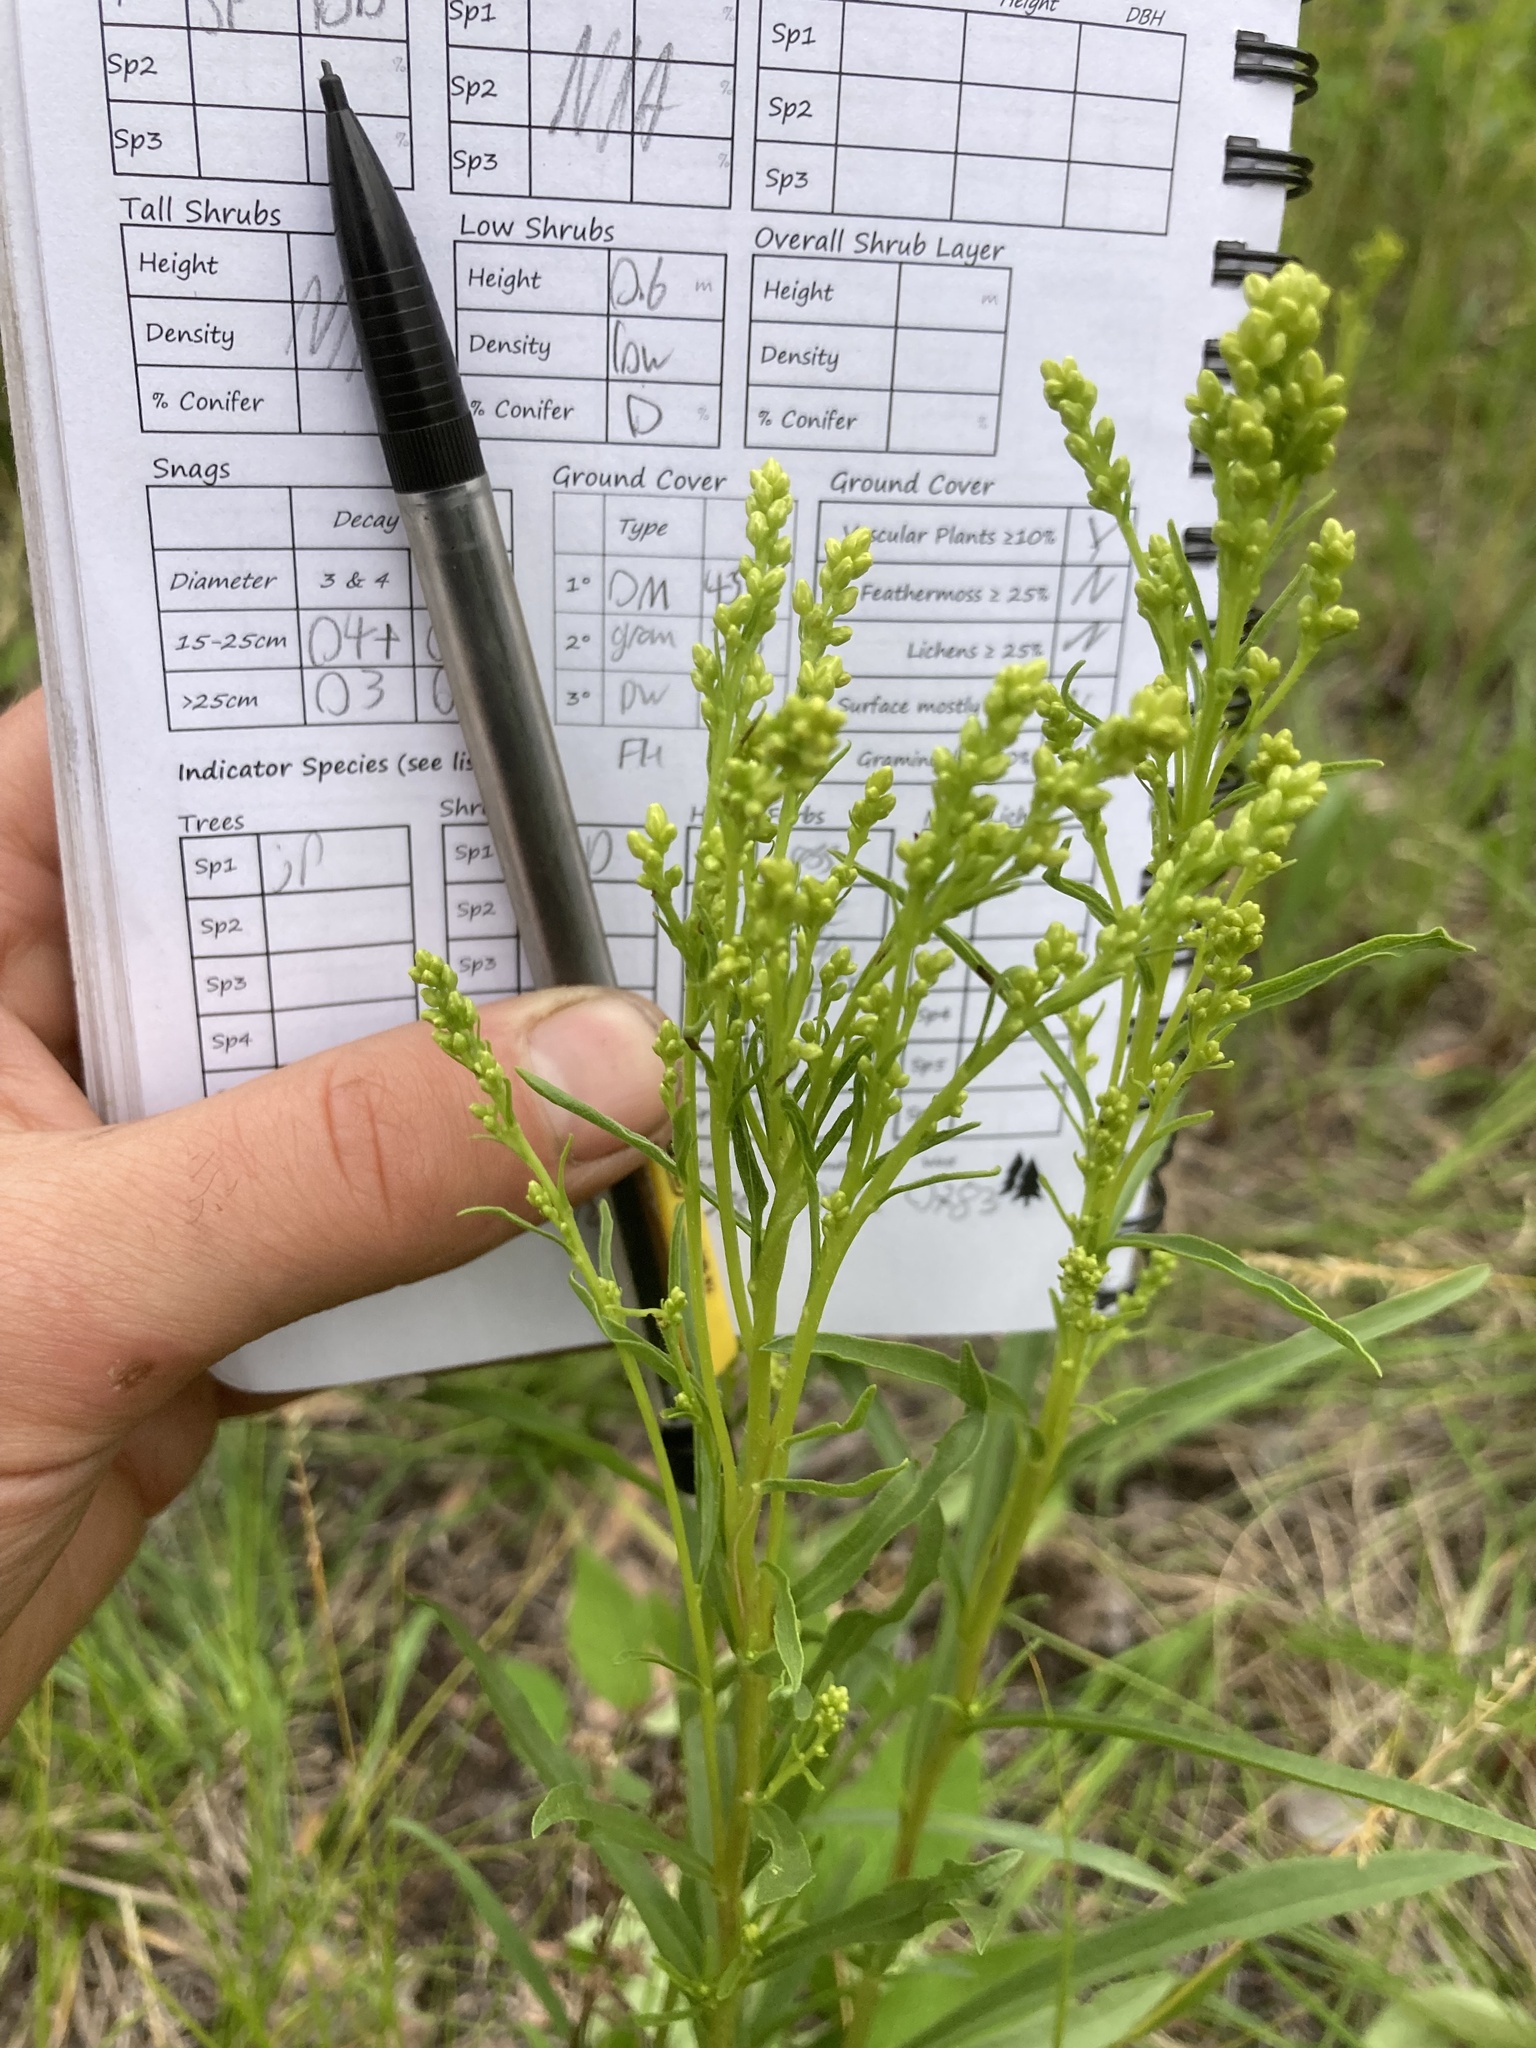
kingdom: Plantae
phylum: Tracheophyta
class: Magnoliopsida
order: Asterales
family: Asteraceae
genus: Solidago
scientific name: Solidago missouriensis
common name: Prairie goldenrod
